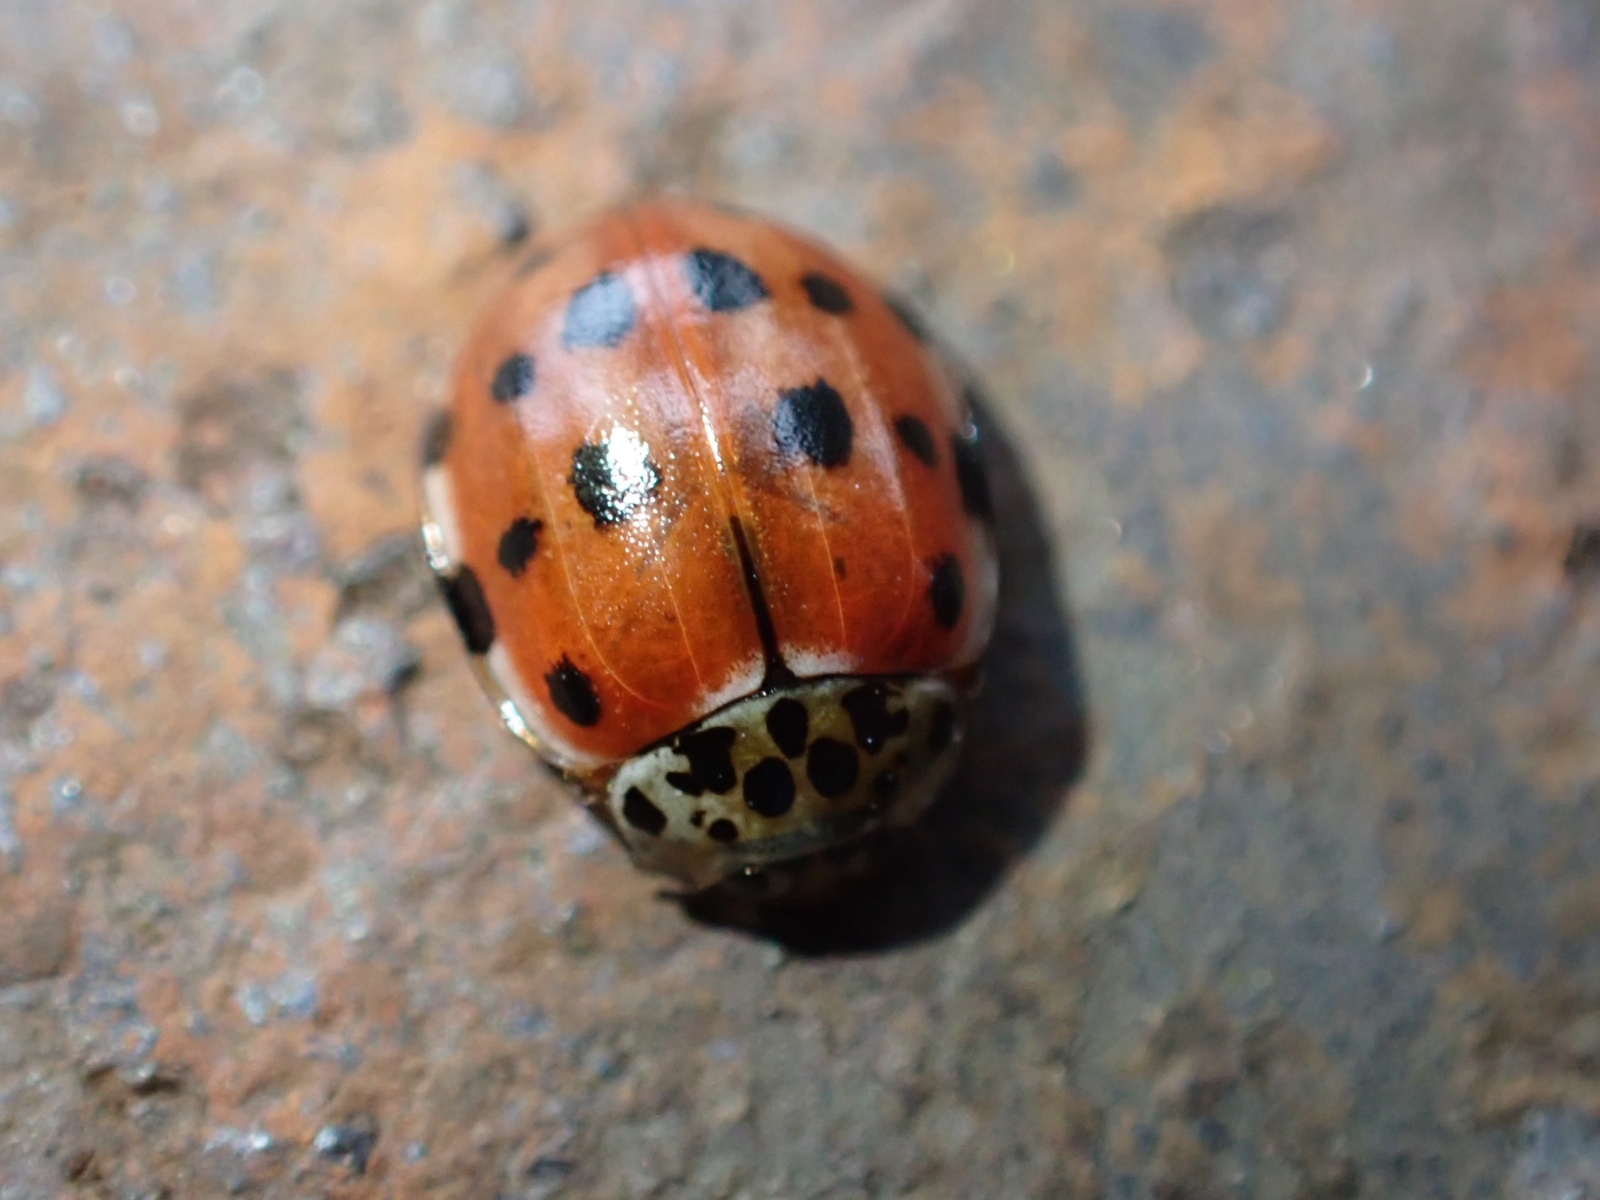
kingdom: Animalia
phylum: Arthropoda
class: Insecta
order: Coleoptera
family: Coccinellidae
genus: Harmonia
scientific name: Harmonia quadripunctata
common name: Cream-streaked ladybird
